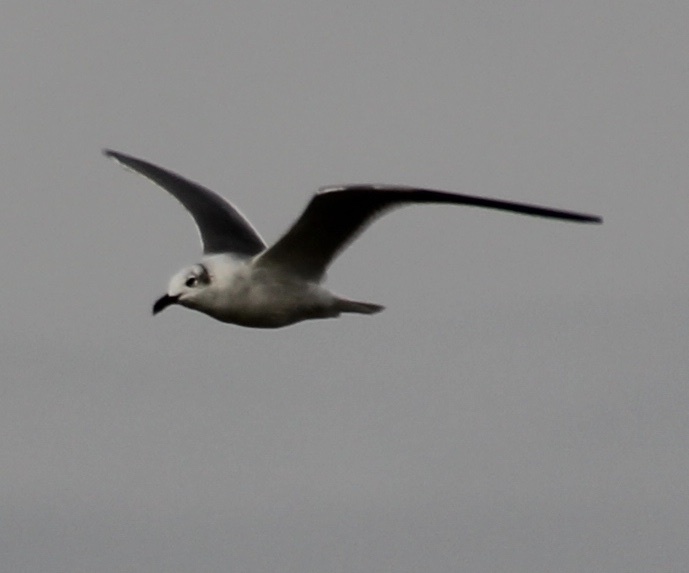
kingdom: Animalia
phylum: Chordata
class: Aves
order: Charadriiformes
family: Laridae
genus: Leucophaeus
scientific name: Leucophaeus atricilla
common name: Laughing gull
